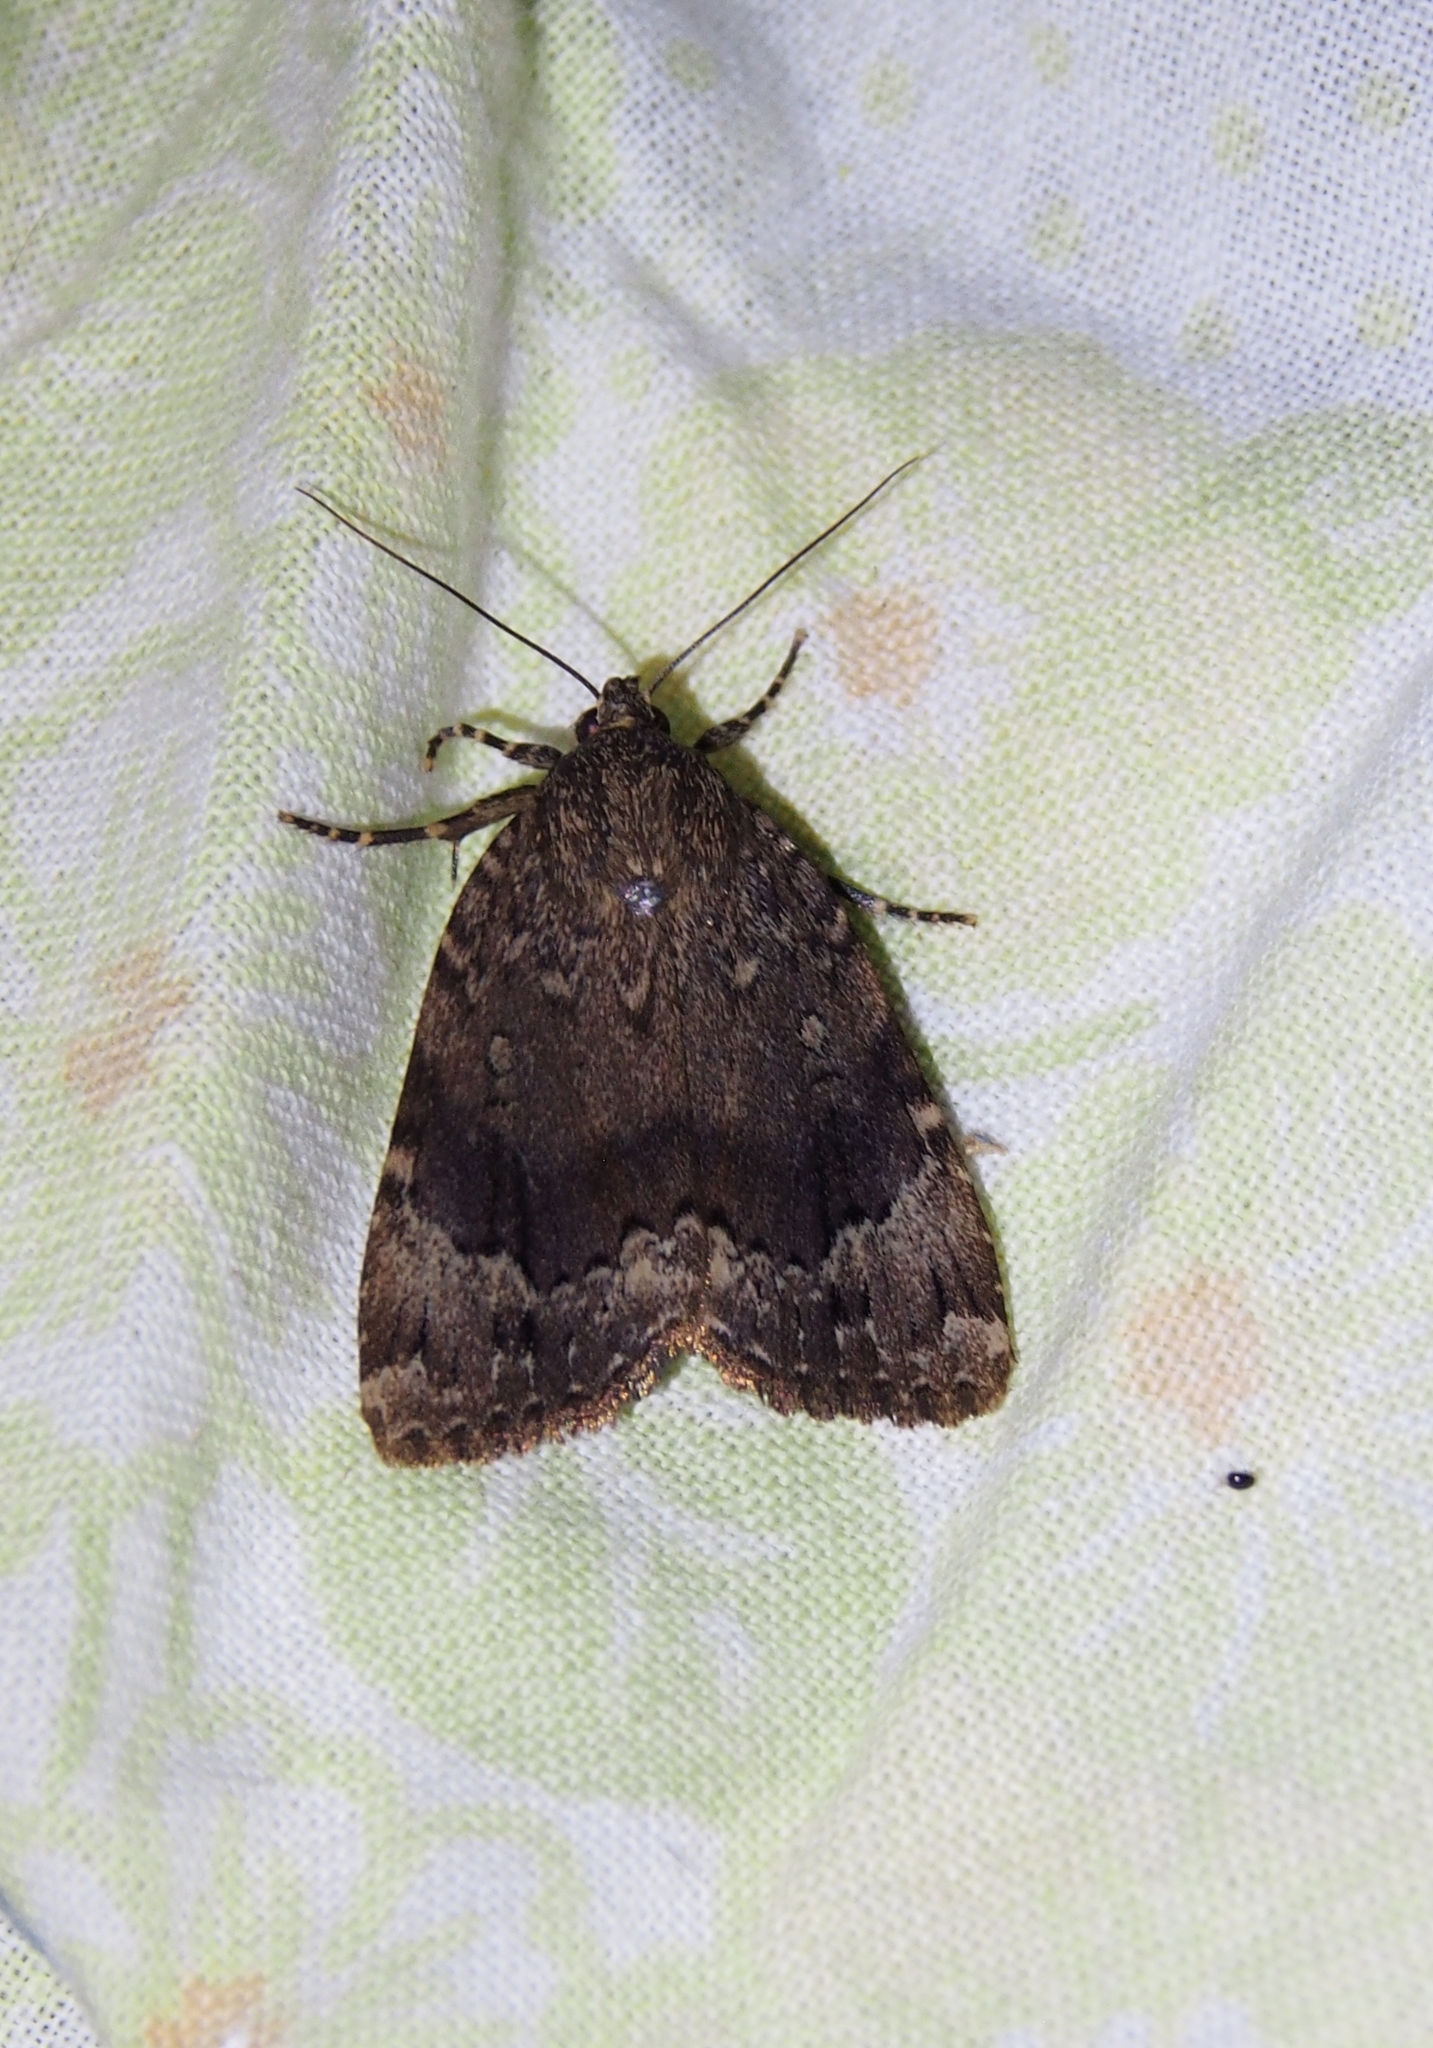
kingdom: Animalia
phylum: Arthropoda
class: Insecta
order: Lepidoptera
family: Noctuidae
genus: Amphipyra
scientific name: Amphipyra pyramidoides
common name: American copper underwing
